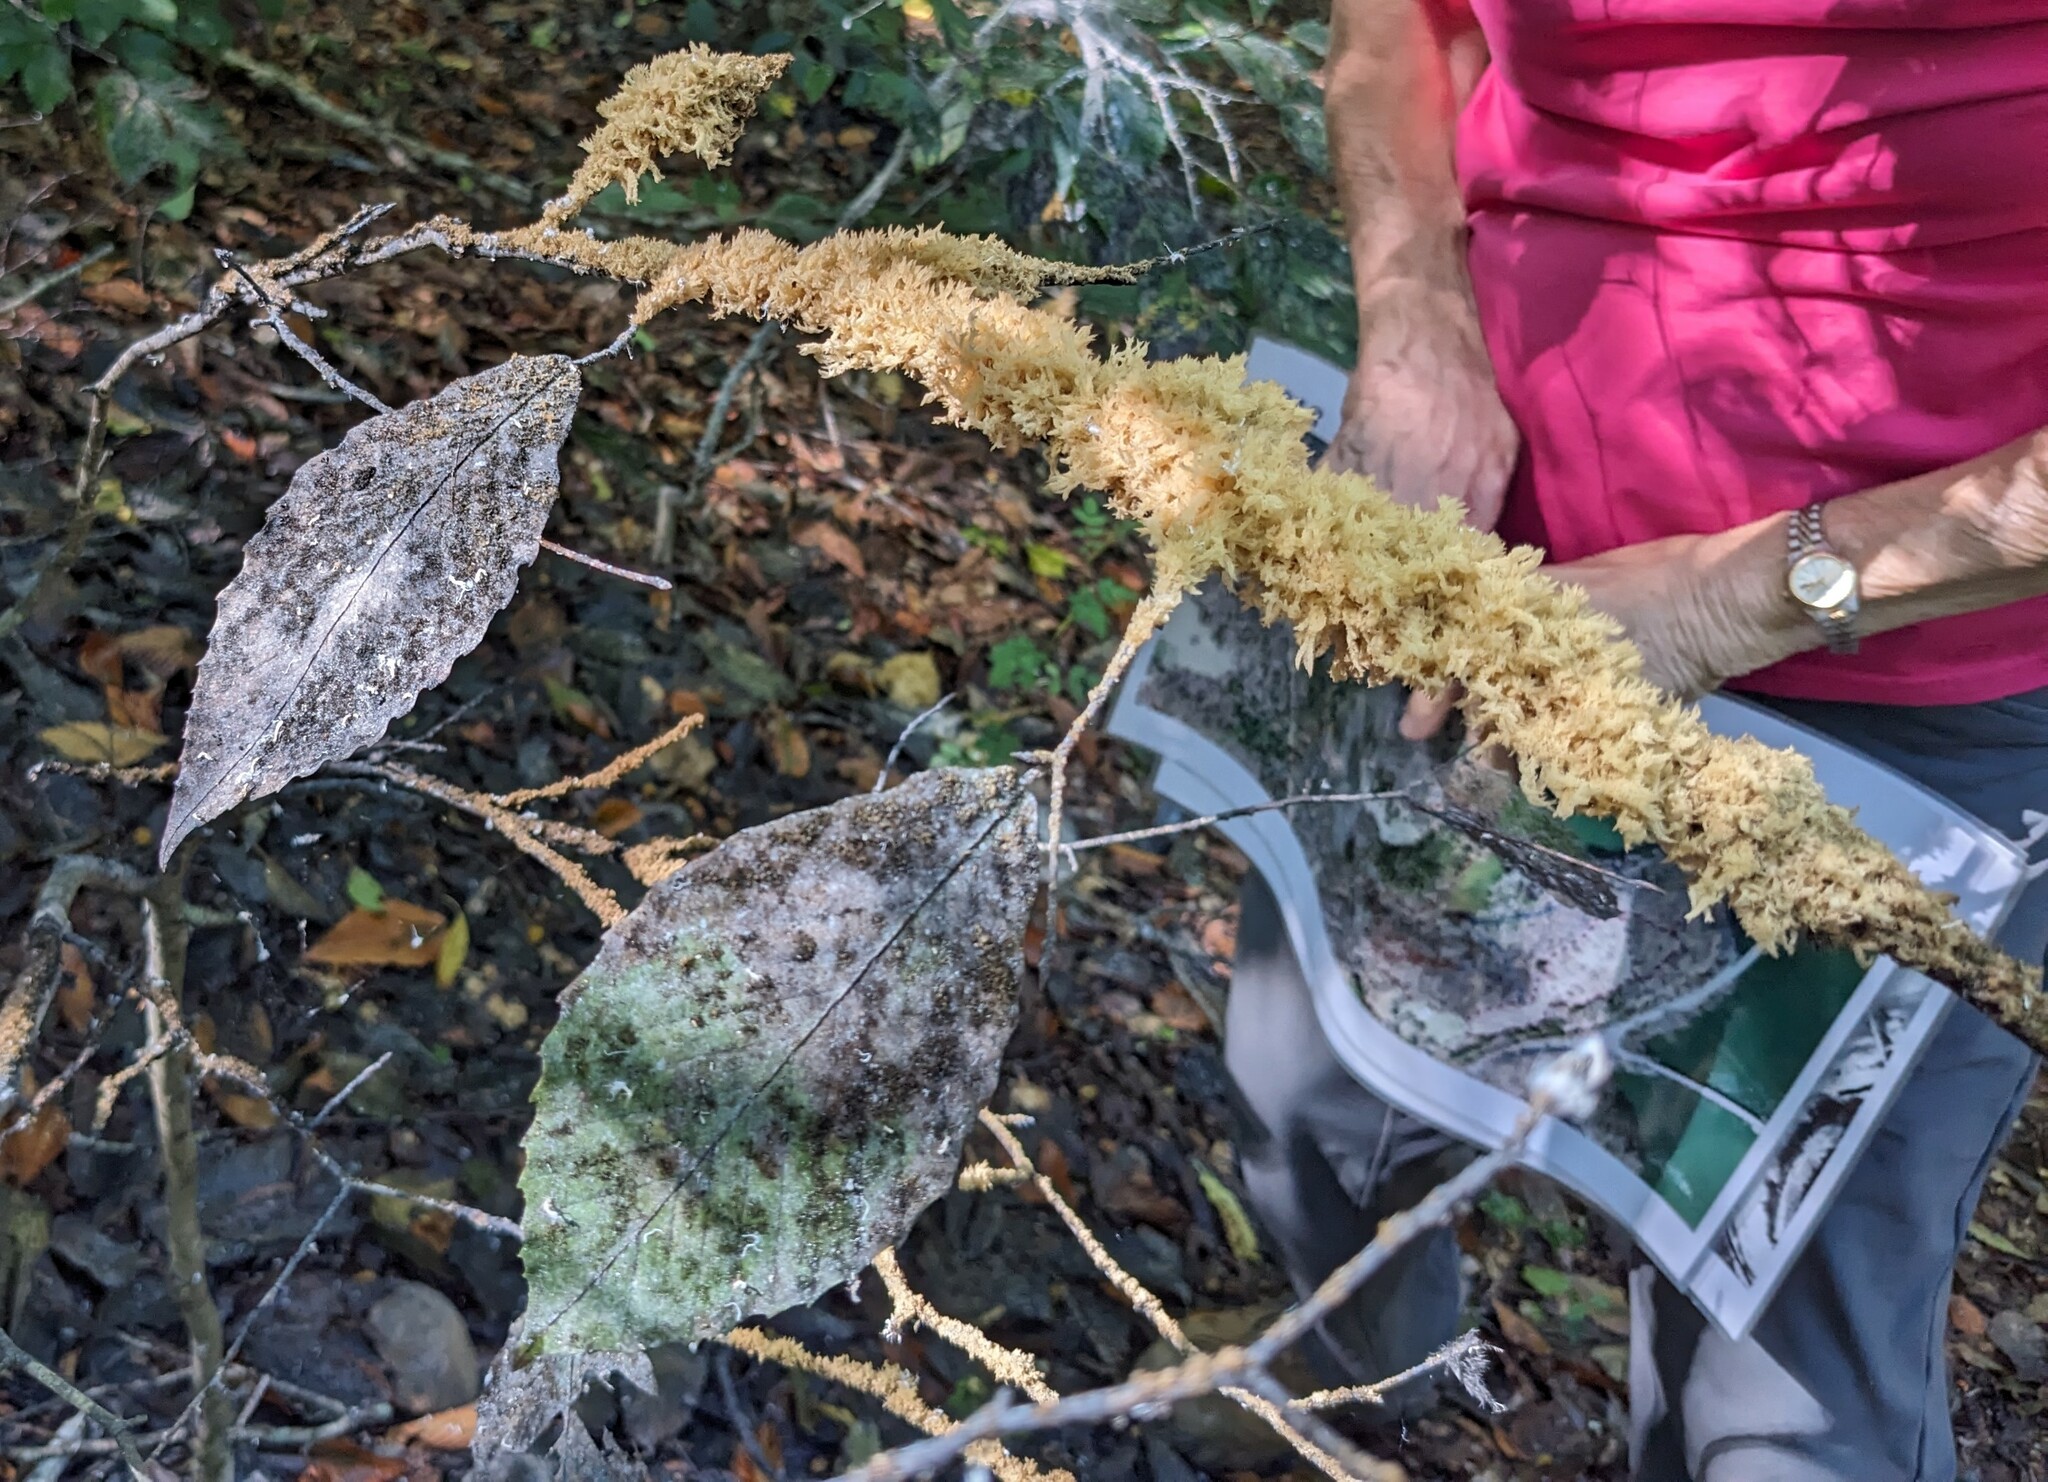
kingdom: Fungi
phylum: Ascomycota
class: Dothideomycetes
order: Capnodiales
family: Capnodiaceae
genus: Scorias
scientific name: Scorias spongiosa
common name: Black sooty mold
